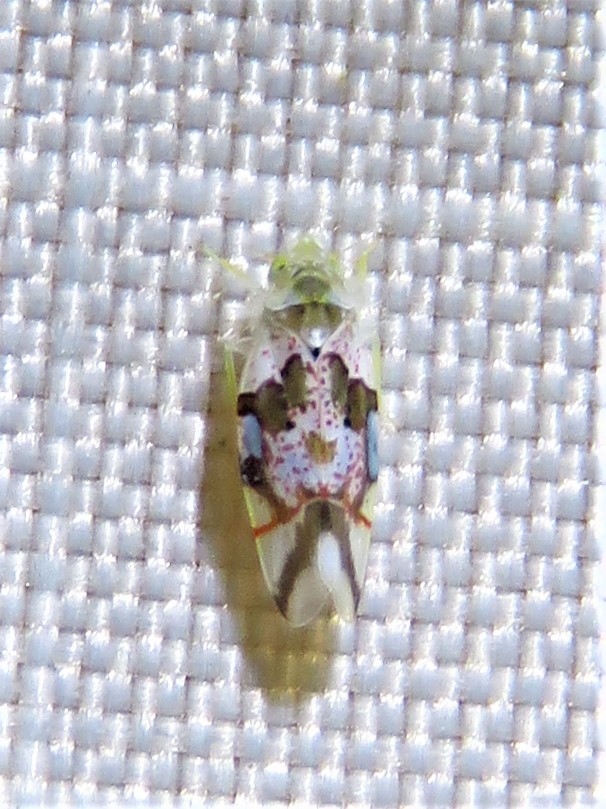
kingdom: Animalia
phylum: Arthropoda
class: Insecta
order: Hemiptera
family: Cicadellidae
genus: Hymetta
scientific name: Hymetta kansasensis
